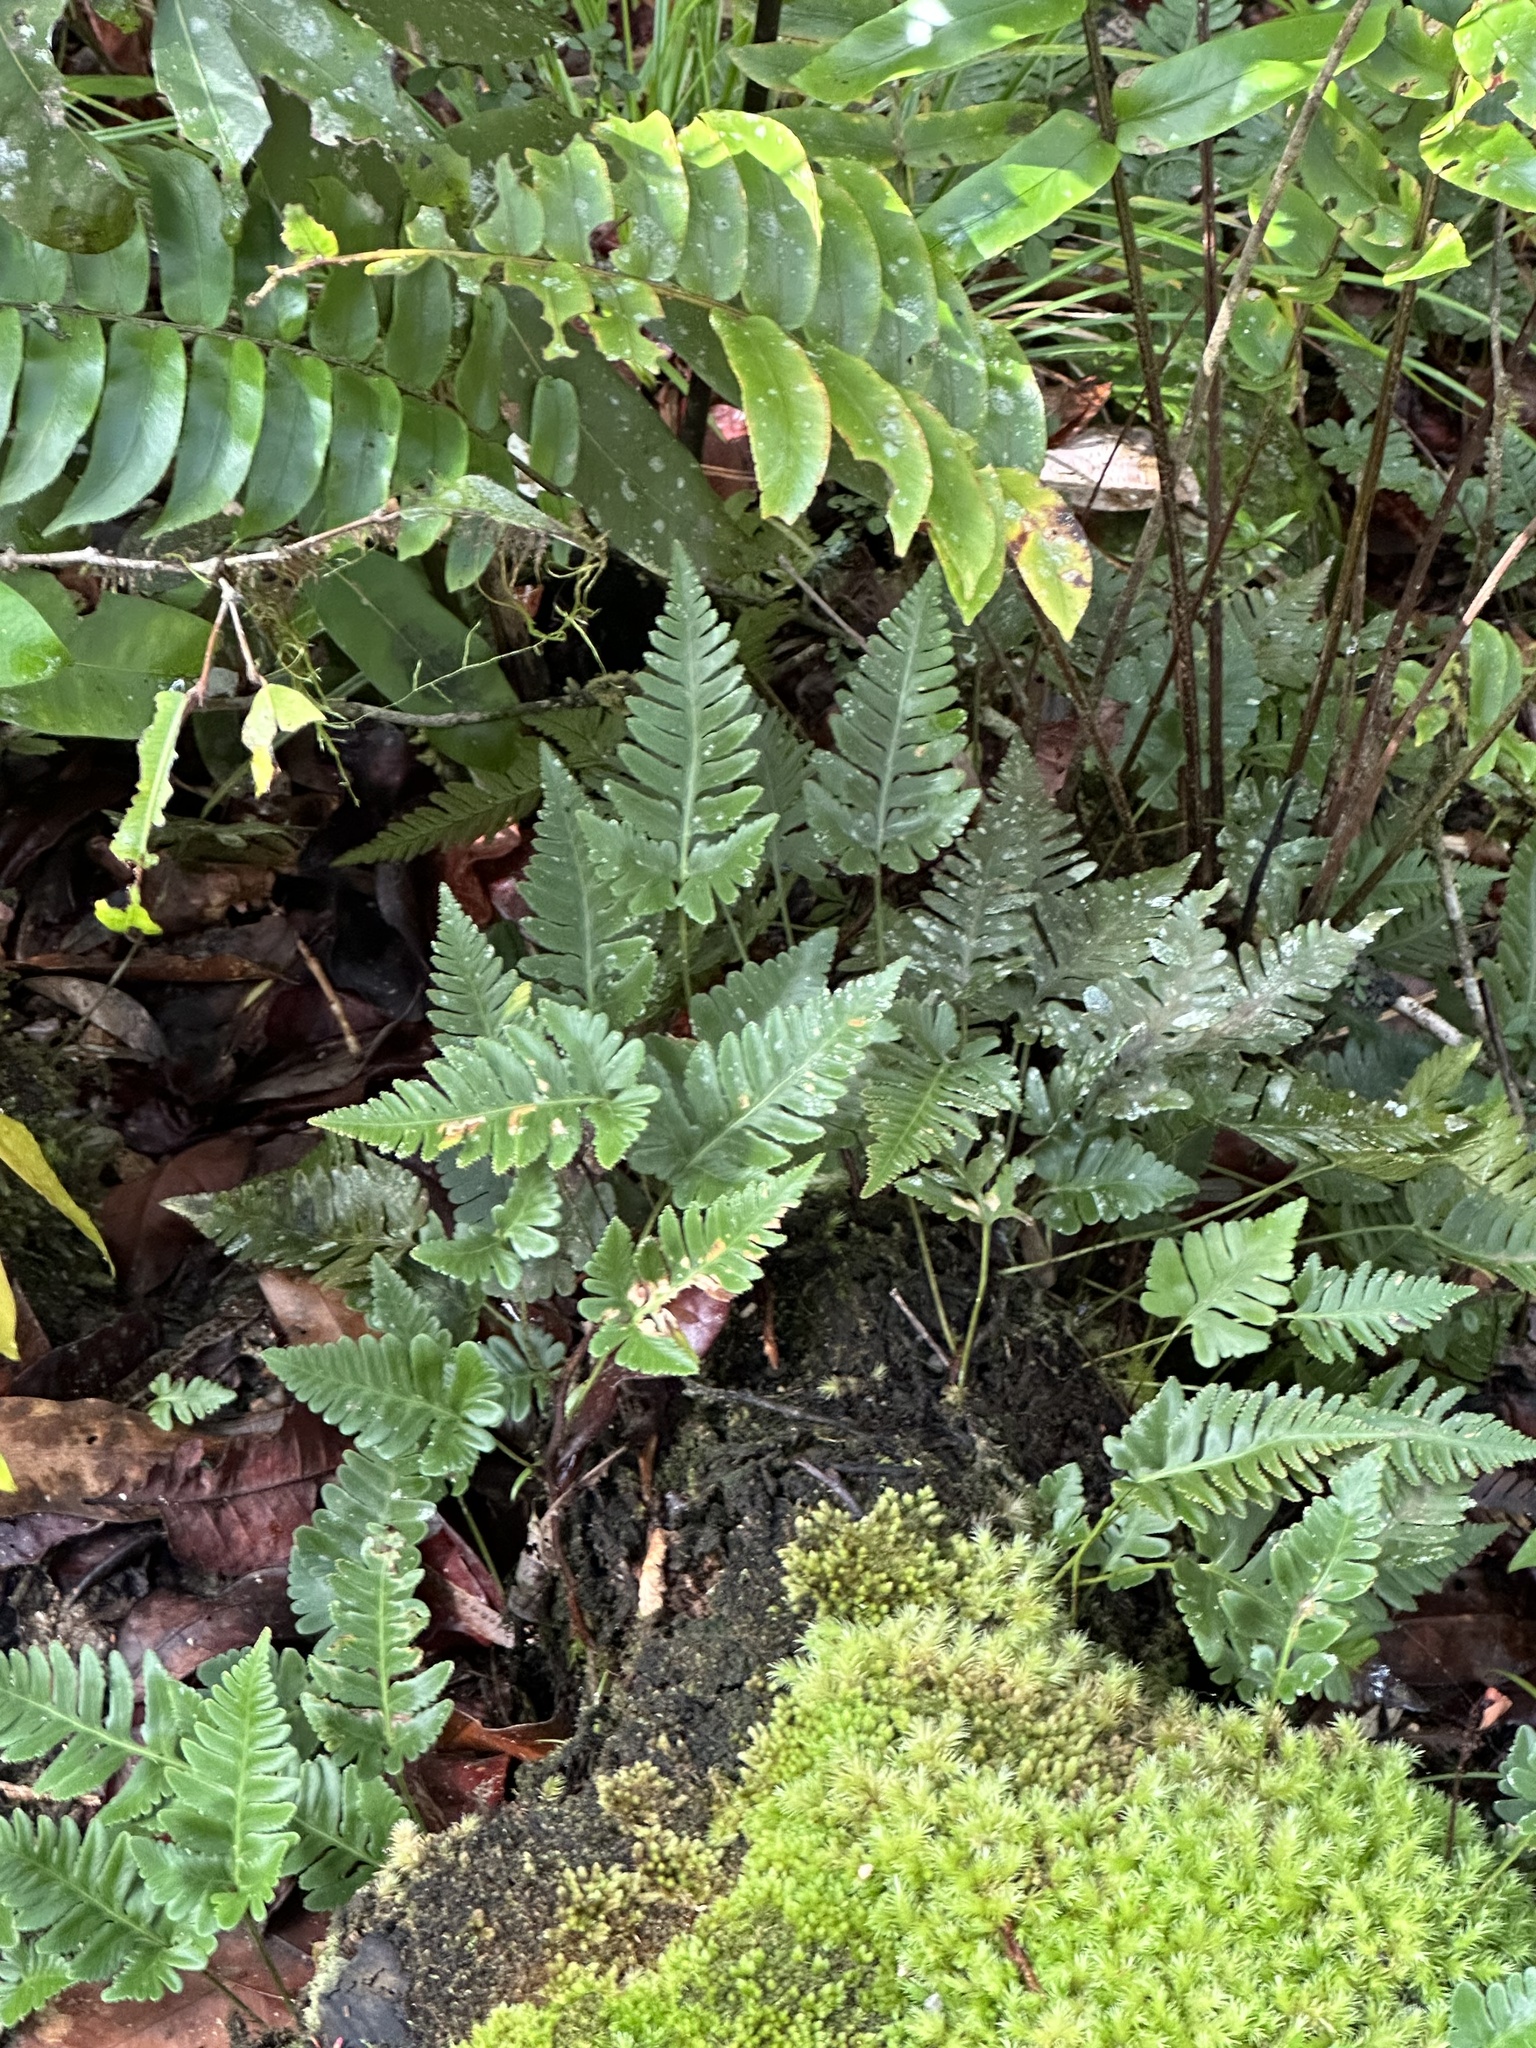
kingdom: Plantae
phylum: Tracheophyta
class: Polypodiopsida
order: Polypodiales
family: Davalliaceae
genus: Davallia
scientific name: Davallia repens
